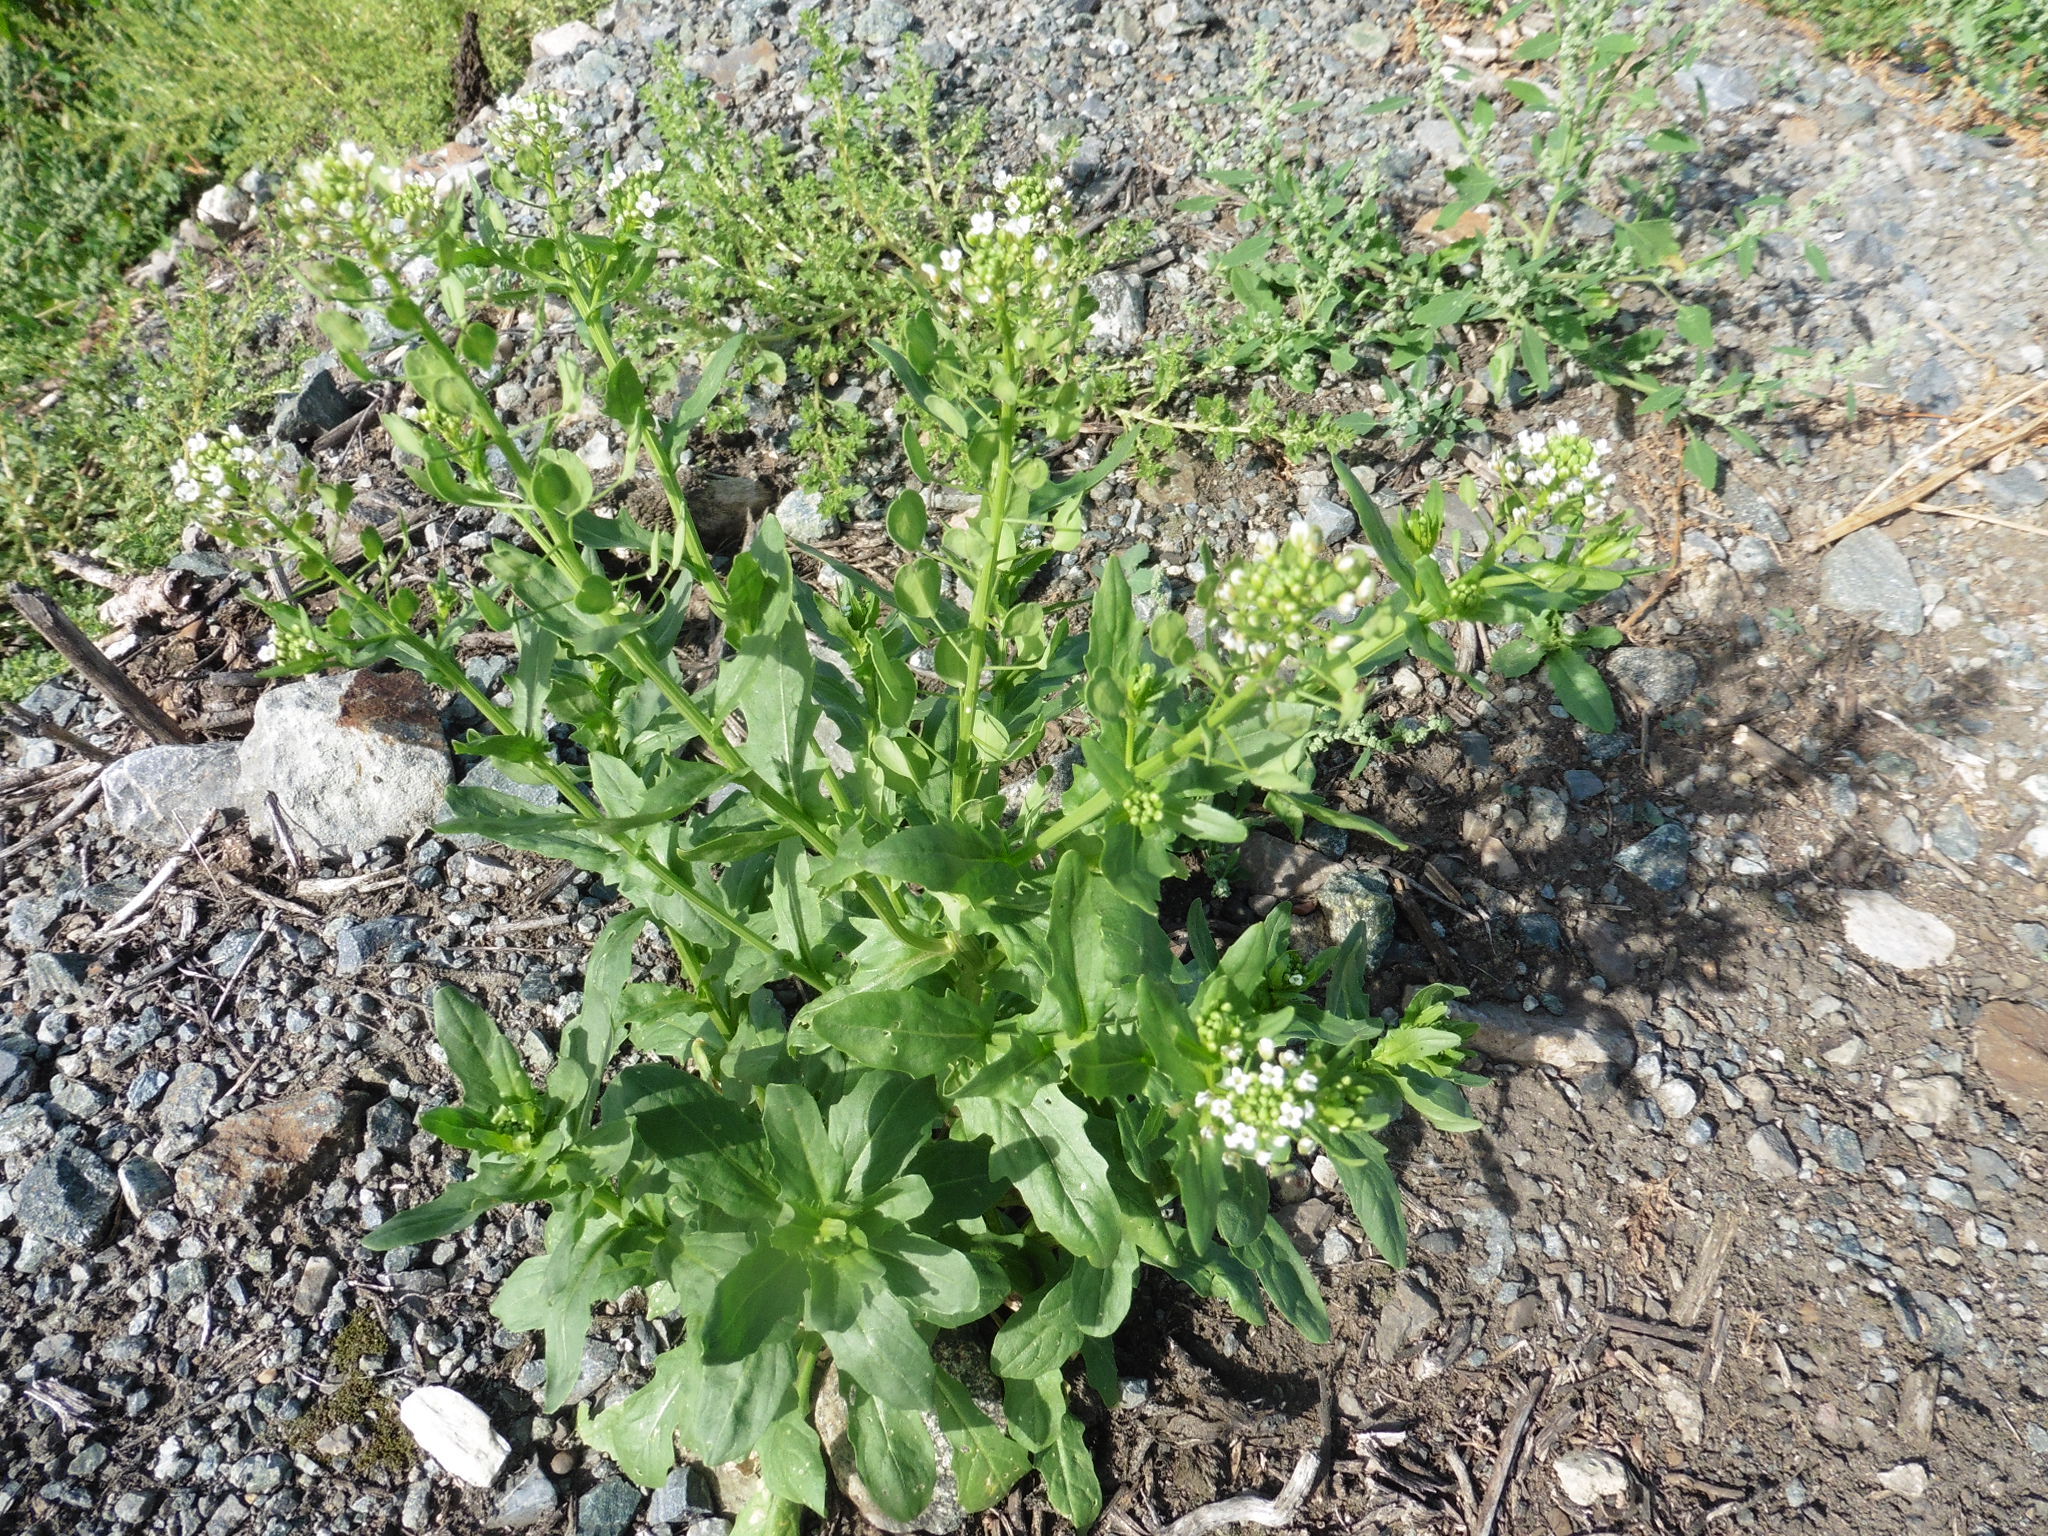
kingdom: Plantae
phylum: Tracheophyta
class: Magnoliopsida
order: Brassicales
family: Brassicaceae
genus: Thlaspi
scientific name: Thlaspi arvense
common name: Field pennycress
